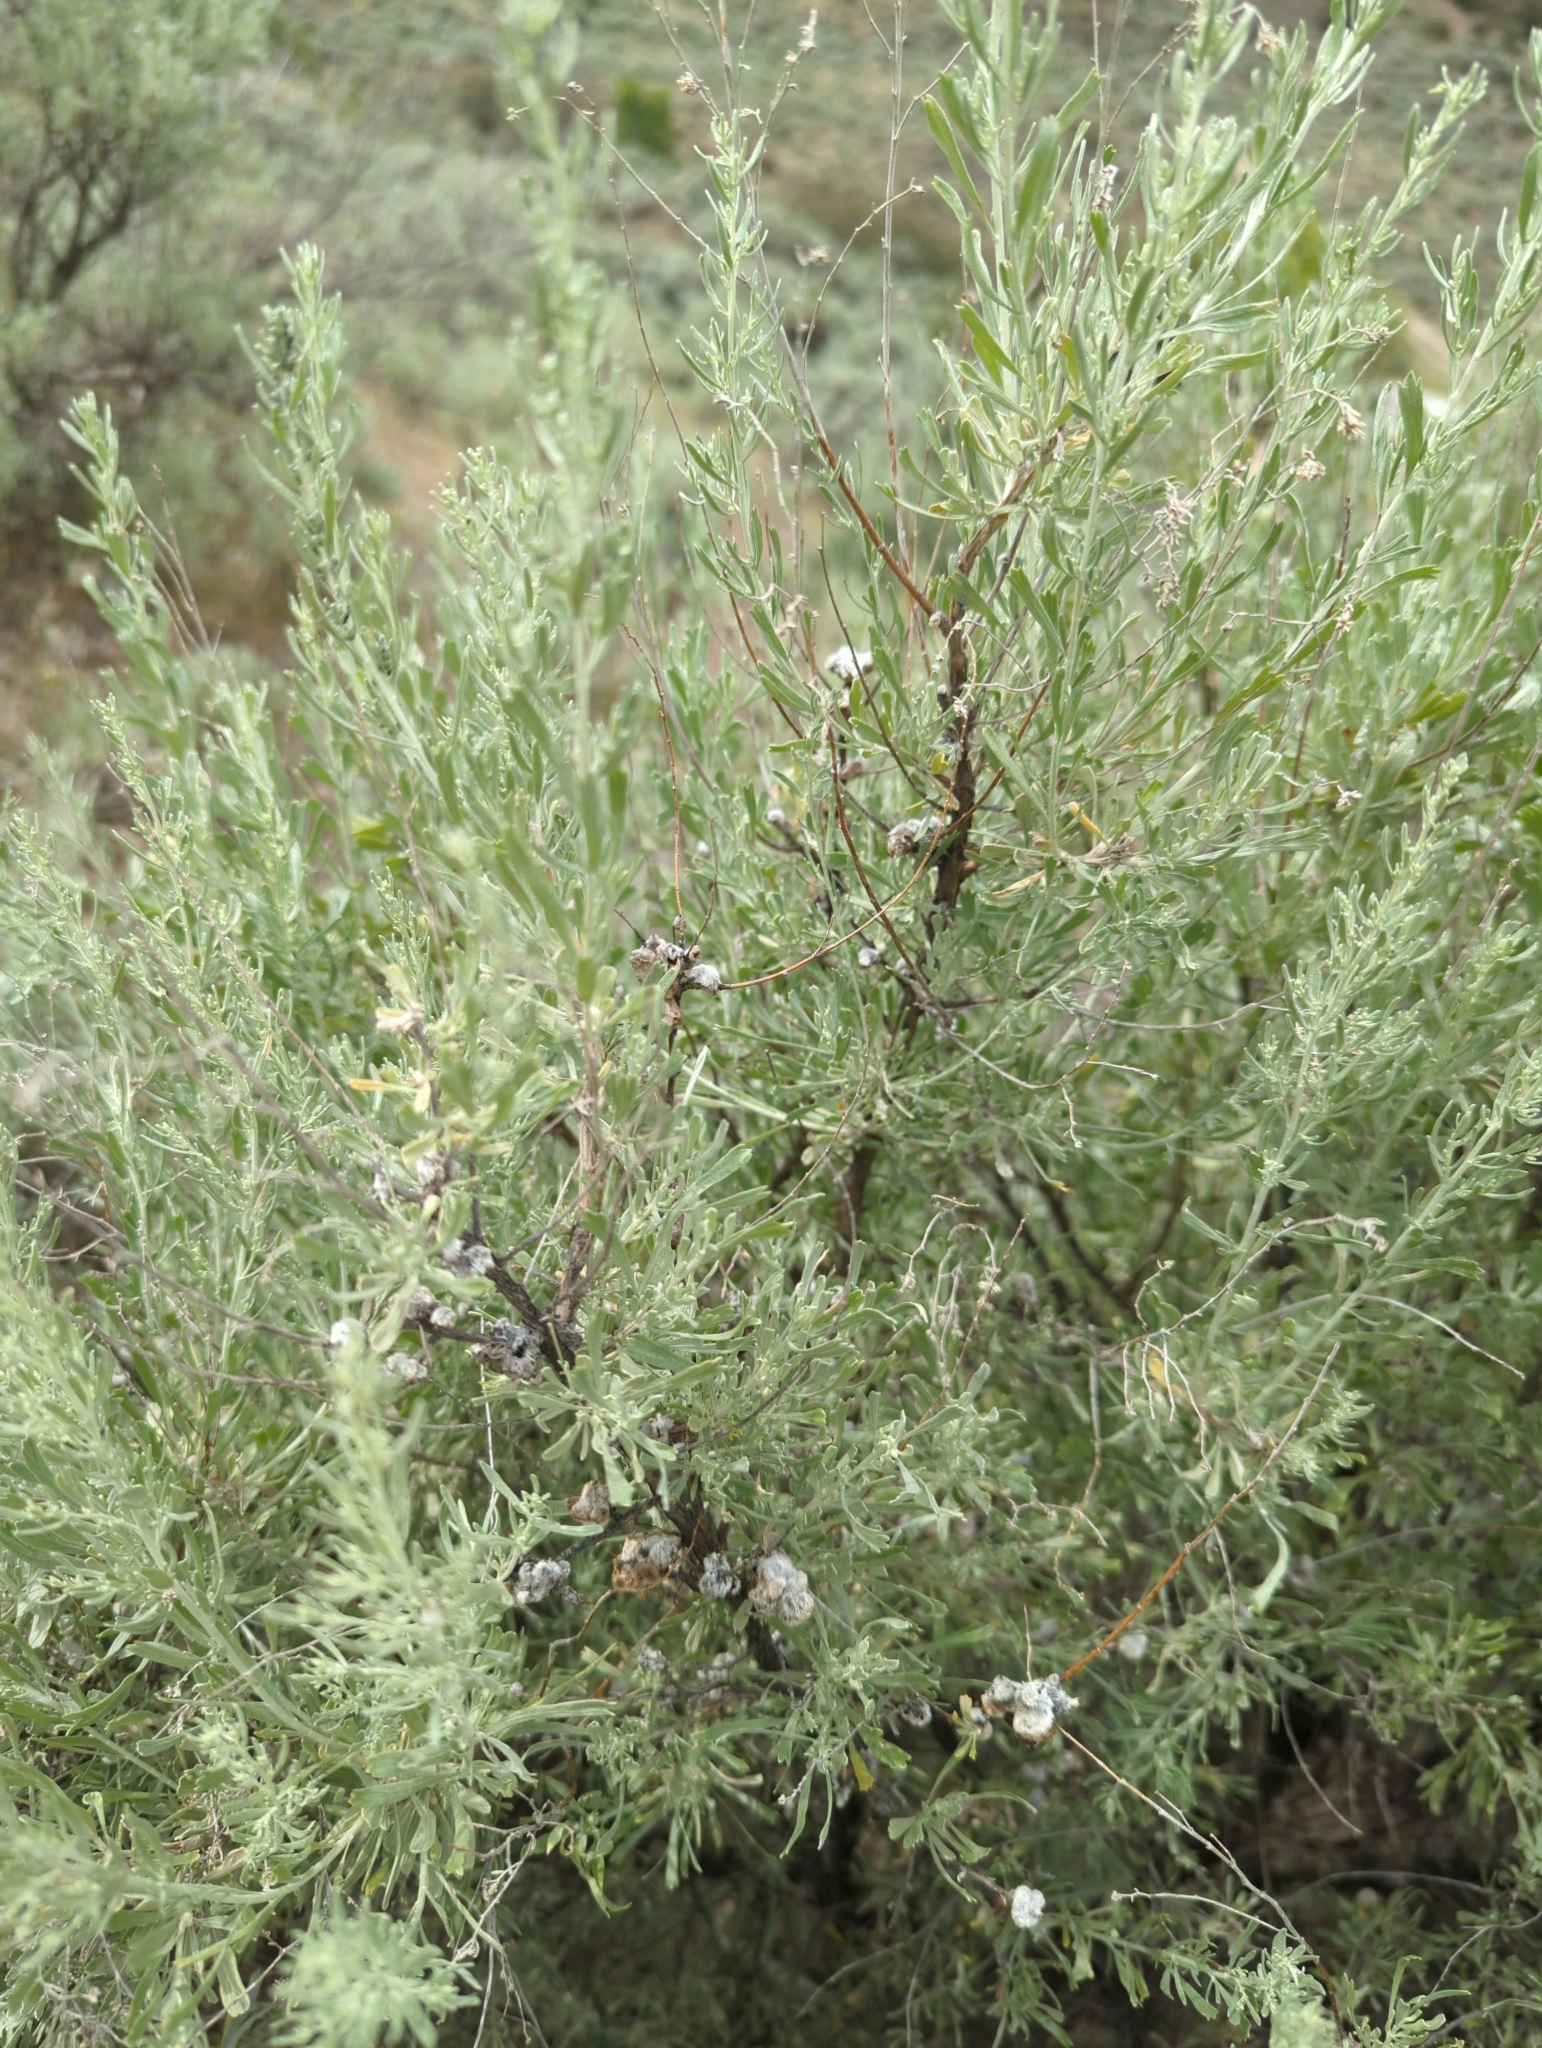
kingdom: Plantae
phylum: Tracheophyta
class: Magnoliopsida
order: Asterales
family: Asteraceae
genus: Artemisia
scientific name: Artemisia tridentata
